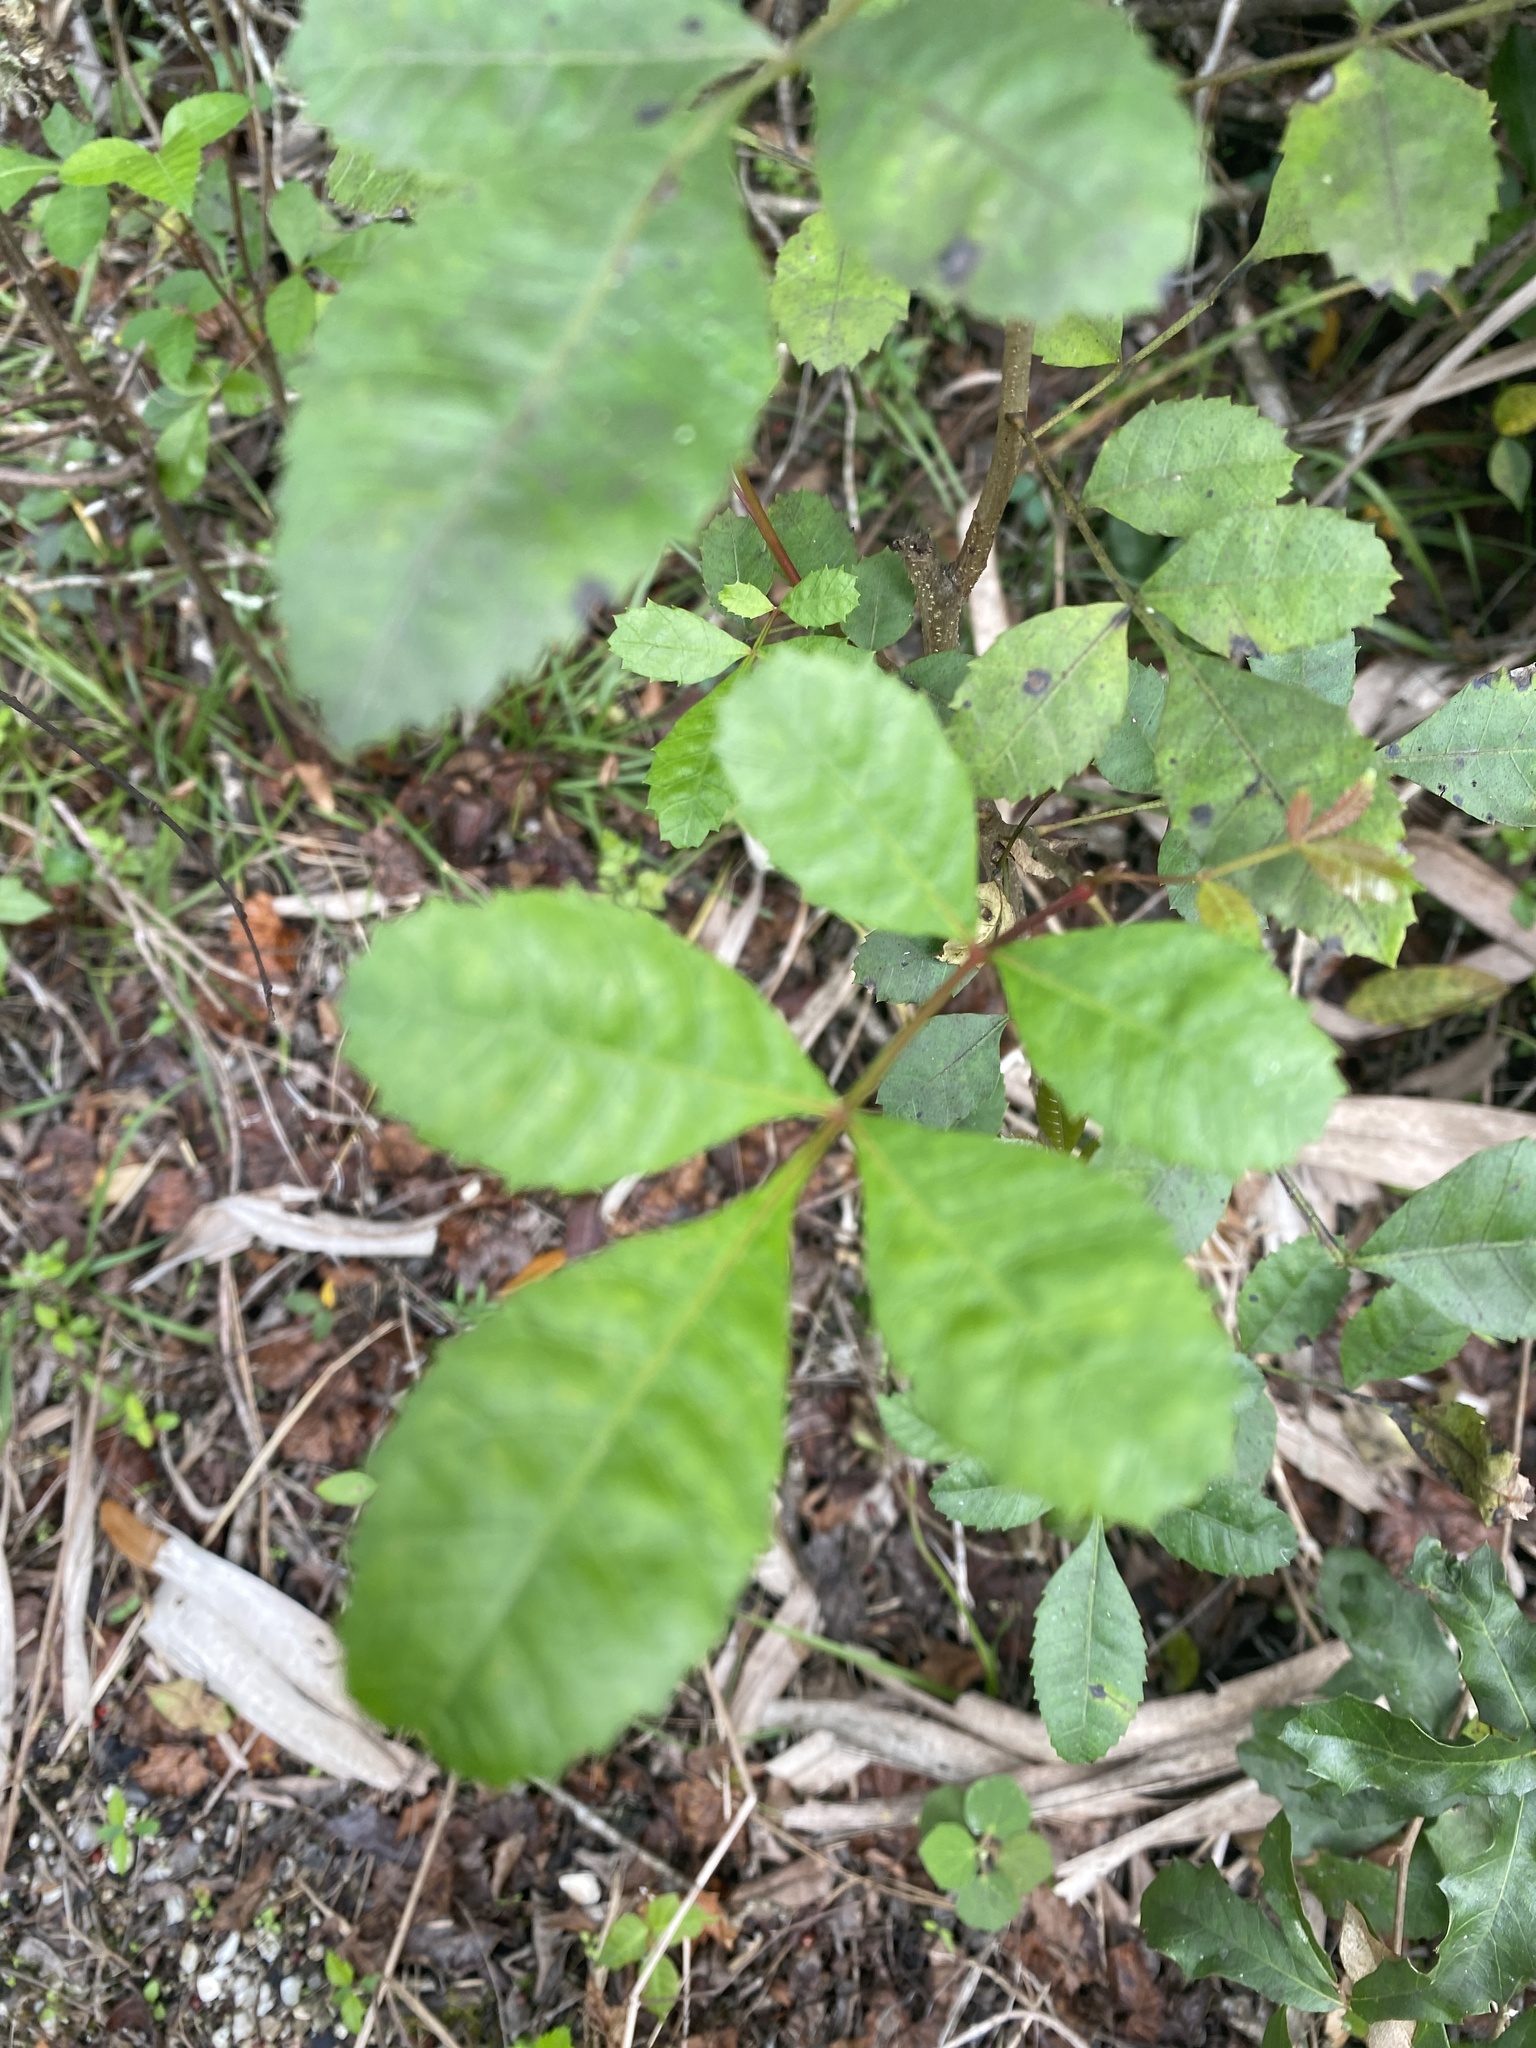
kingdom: Plantae
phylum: Tracheophyta
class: Magnoliopsida
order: Sapindales
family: Anacardiaceae
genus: Schinus
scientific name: Schinus terebinthifolia
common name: Brazilian peppertree
